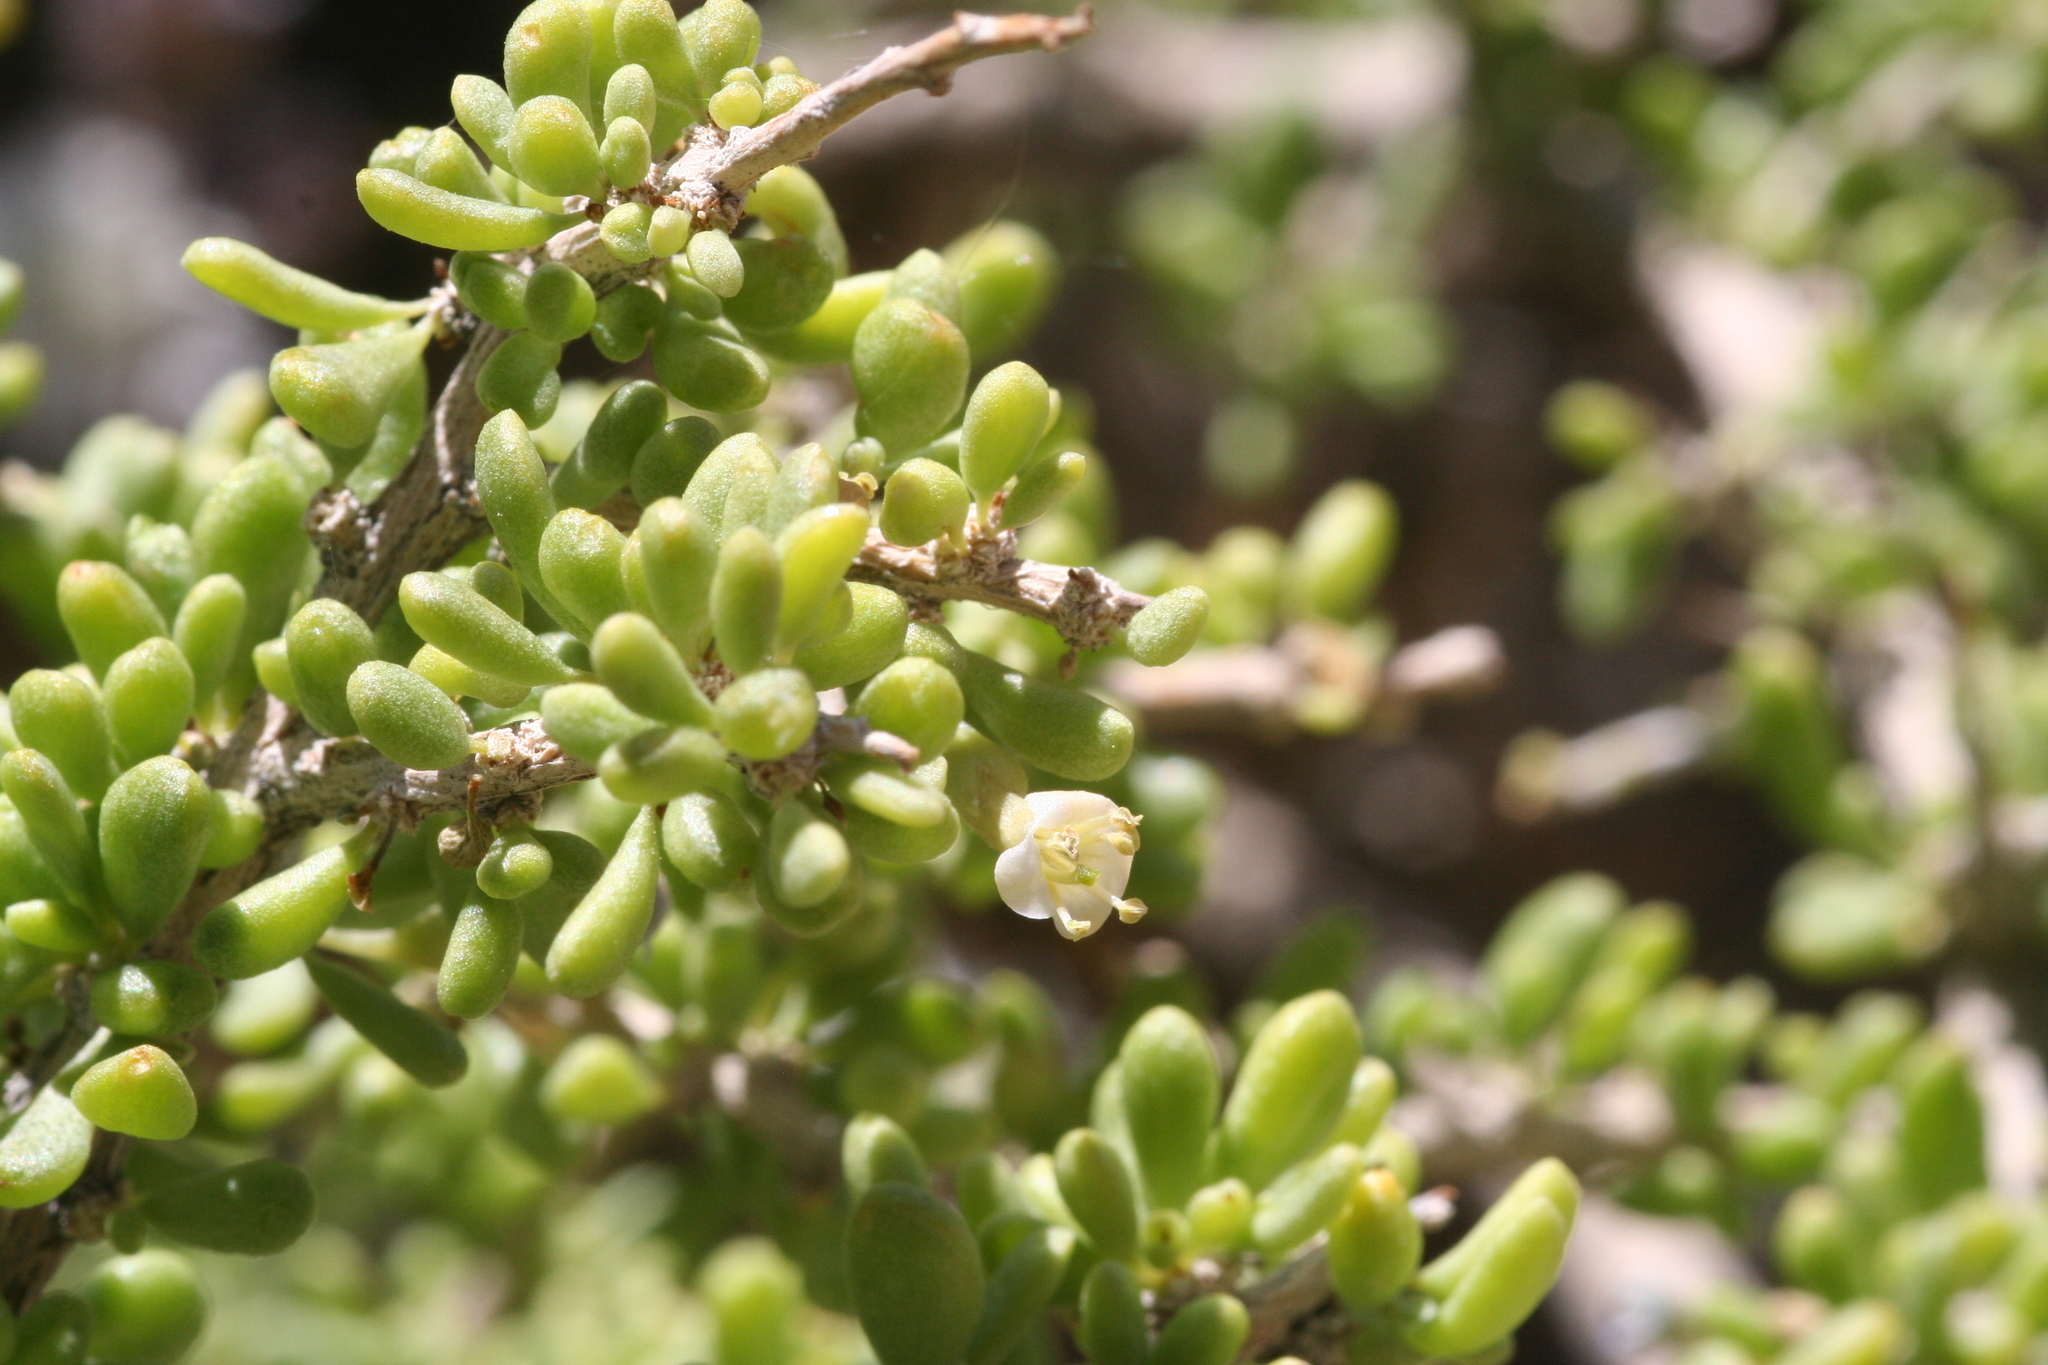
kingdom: Plantae
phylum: Tracheophyta
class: Magnoliopsida
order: Solanales
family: Solanaceae
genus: Lycium
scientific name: Lycium andersonii
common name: Water-jacket
